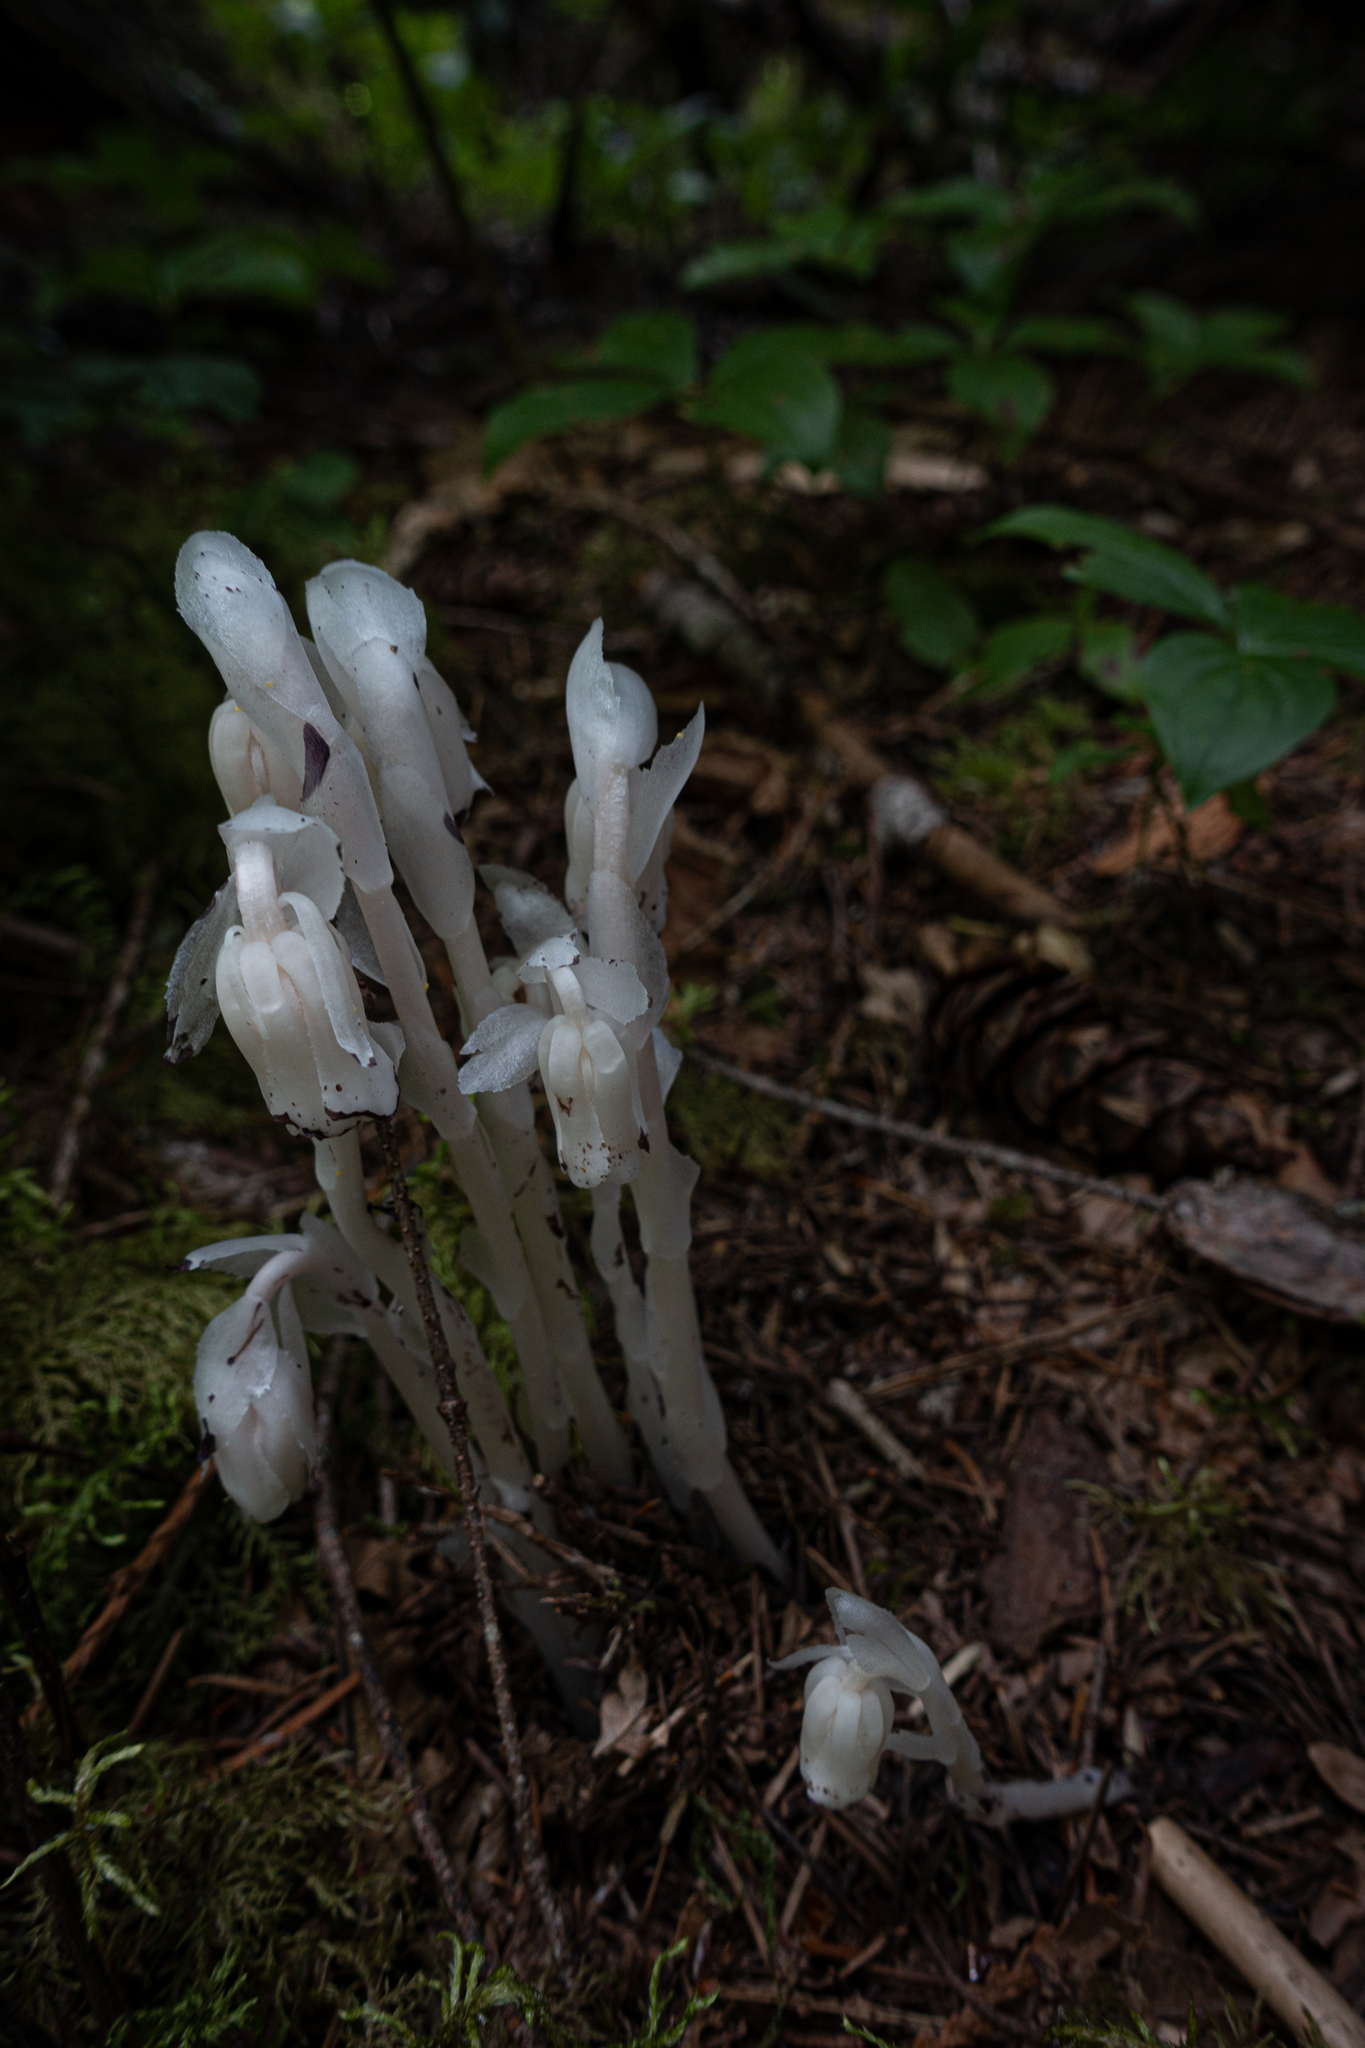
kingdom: Plantae
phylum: Tracheophyta
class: Magnoliopsida
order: Ericales
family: Ericaceae
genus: Monotropa
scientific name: Monotropa uniflora
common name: Convulsion root
